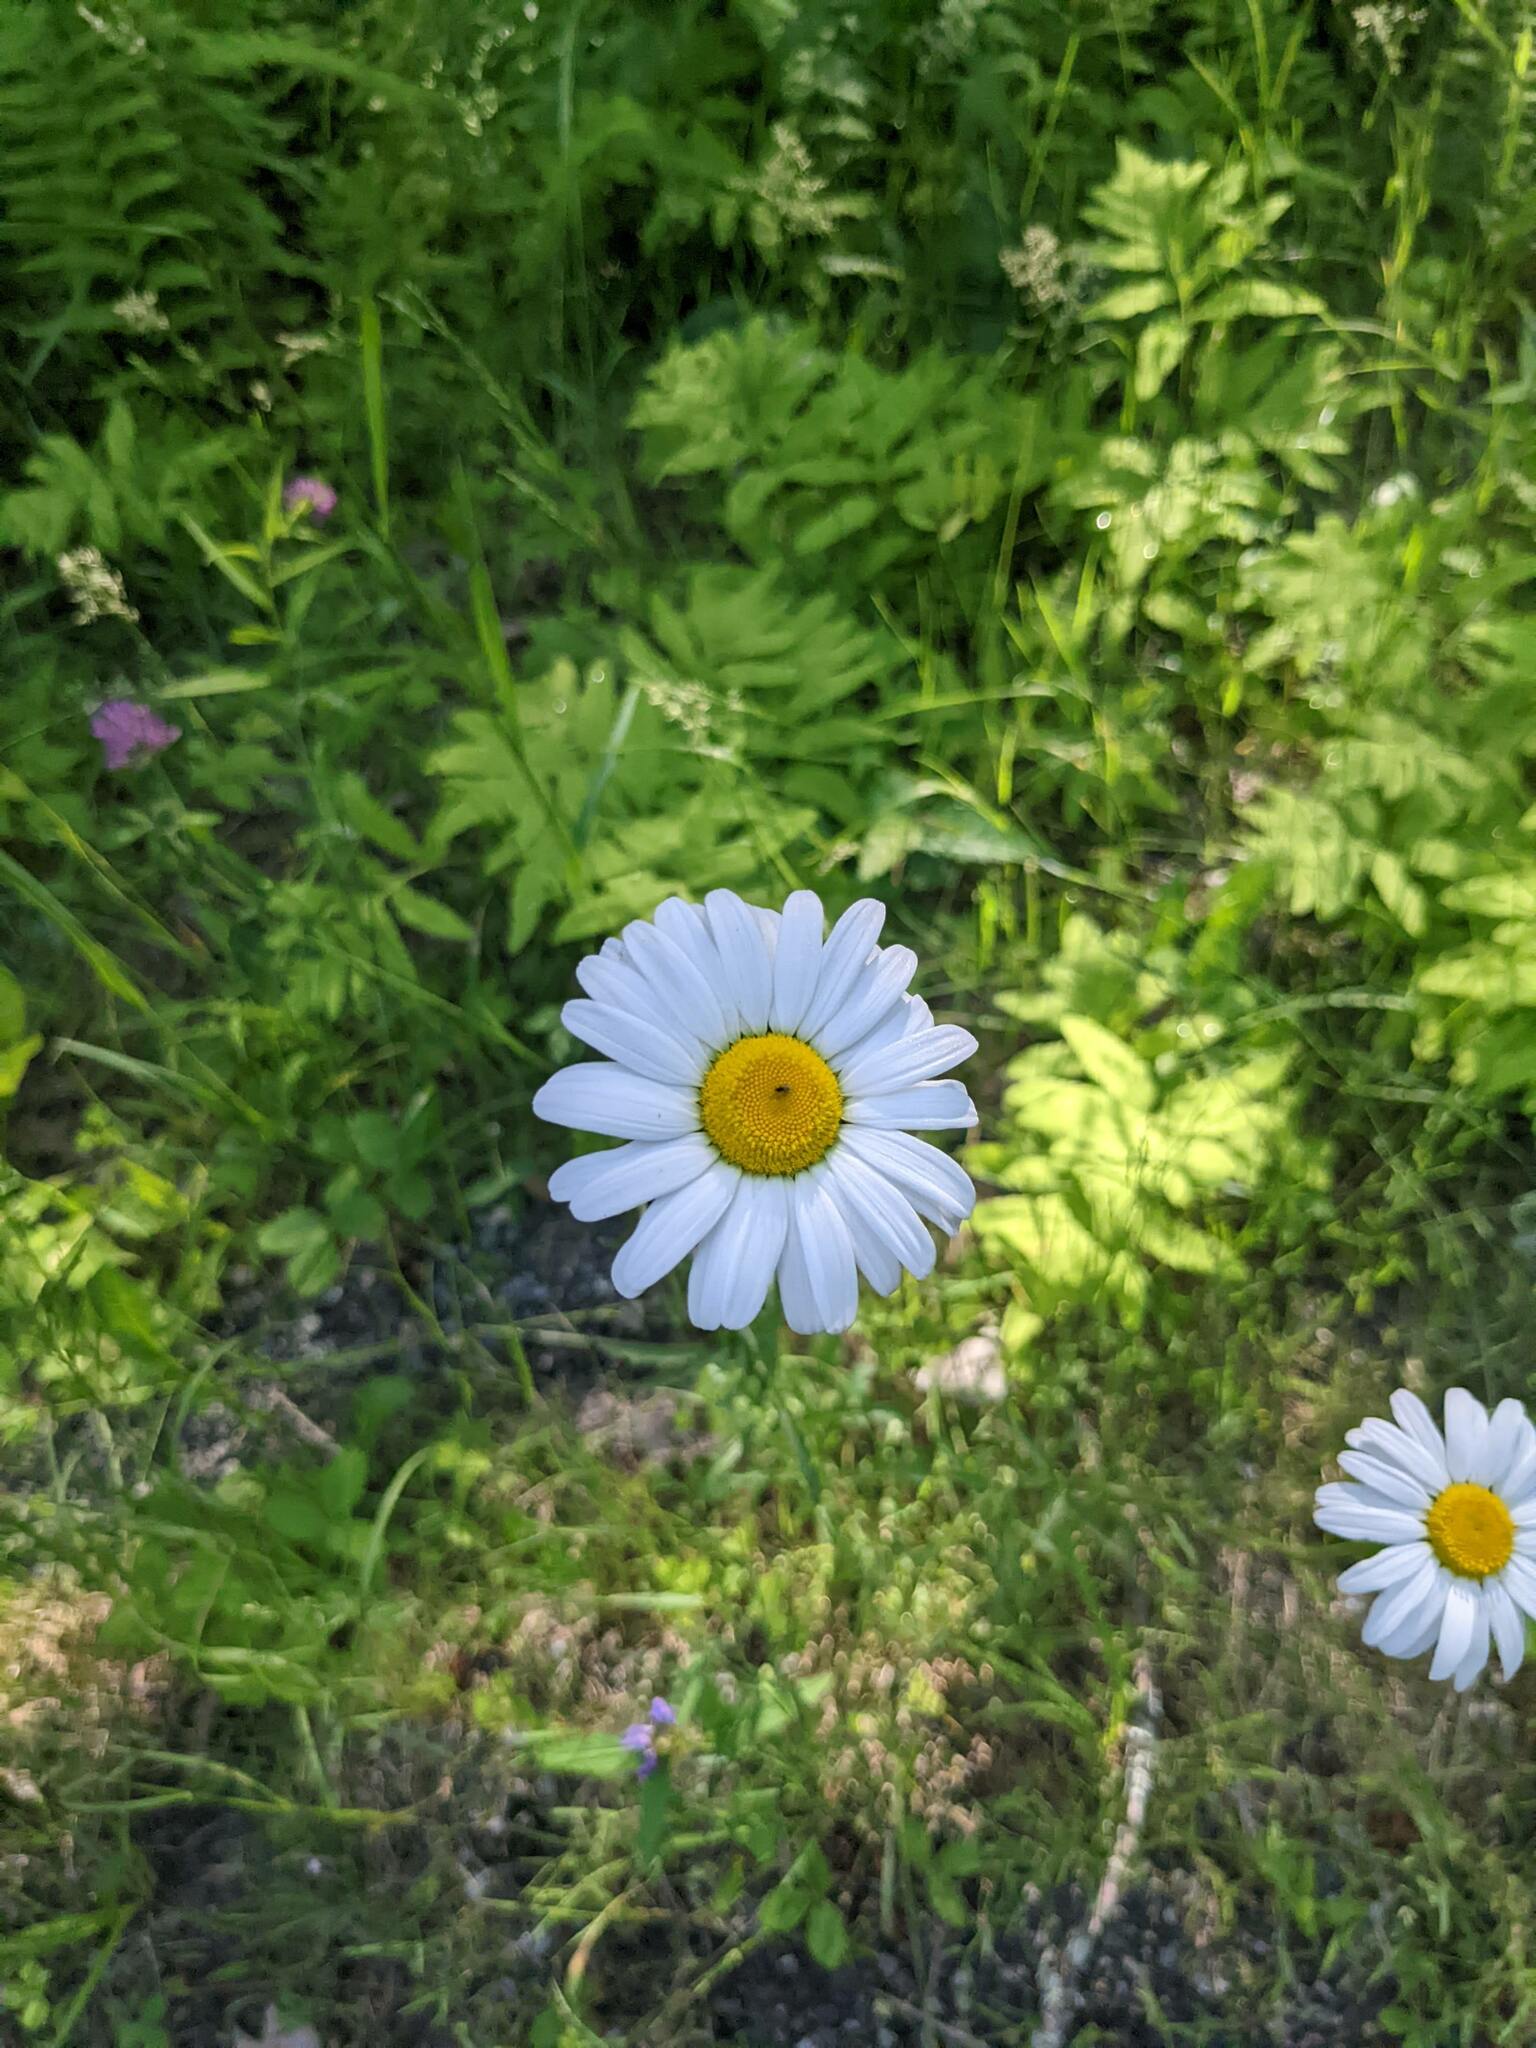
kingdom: Plantae
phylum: Tracheophyta
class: Magnoliopsida
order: Asterales
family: Asteraceae
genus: Leucanthemum
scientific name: Leucanthemum vulgare
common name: Oxeye daisy
